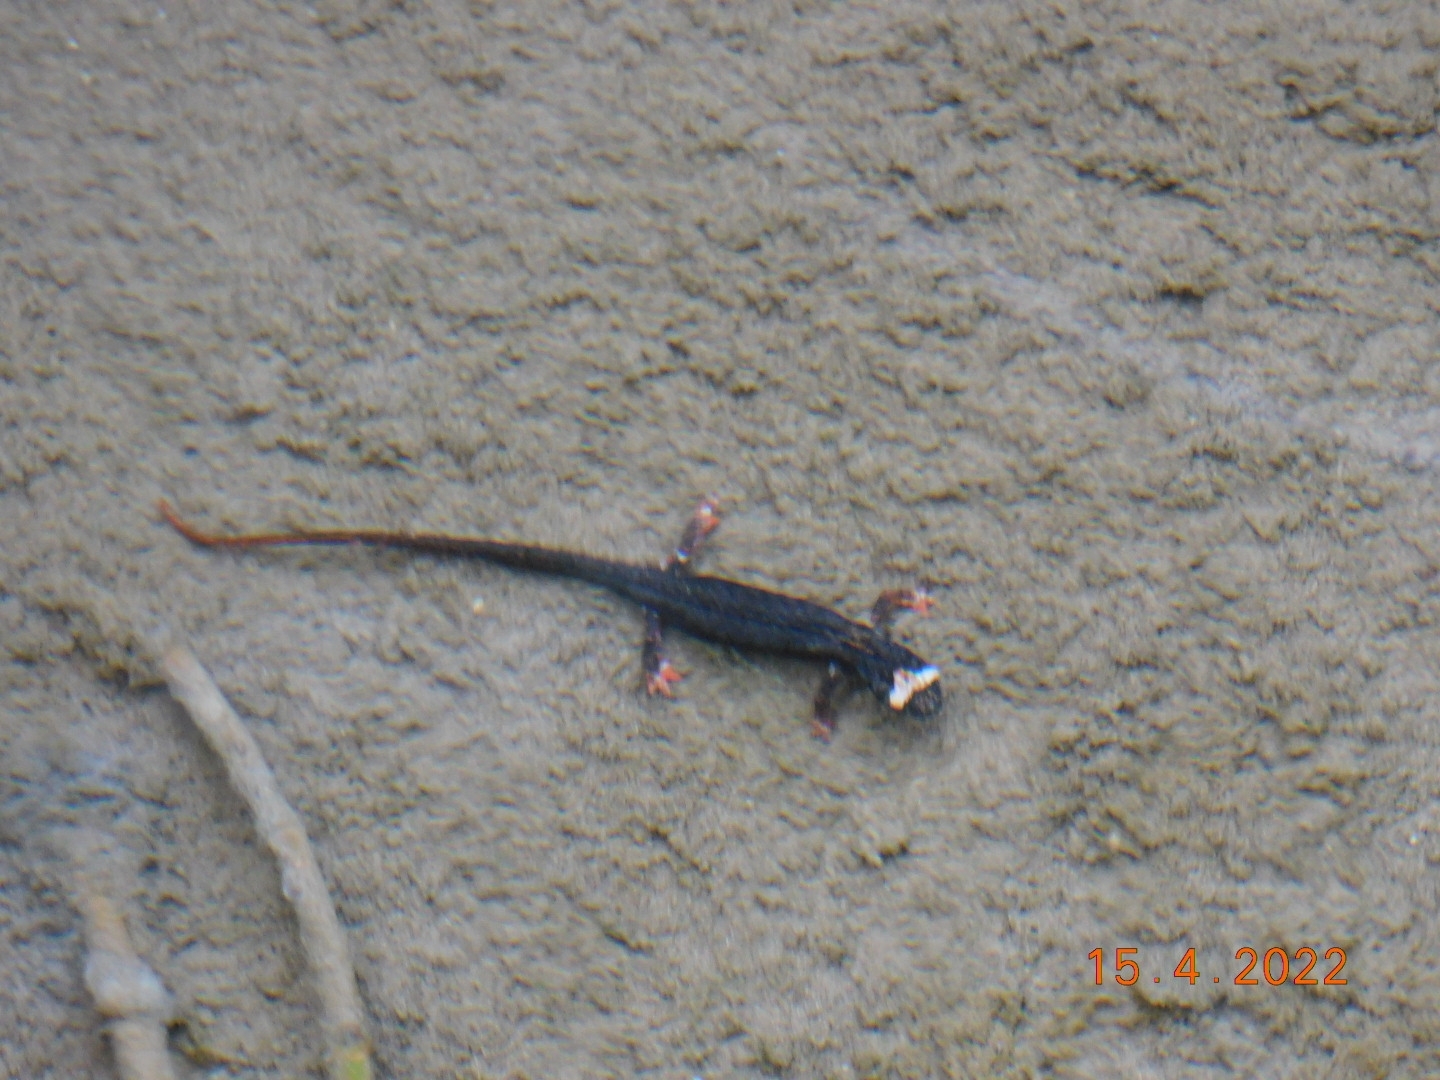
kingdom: Animalia
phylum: Chordata
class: Amphibia
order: Caudata
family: Salamandridae
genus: Salamandrina
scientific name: Salamandrina terdigitata
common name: Southern spectacled salamander
